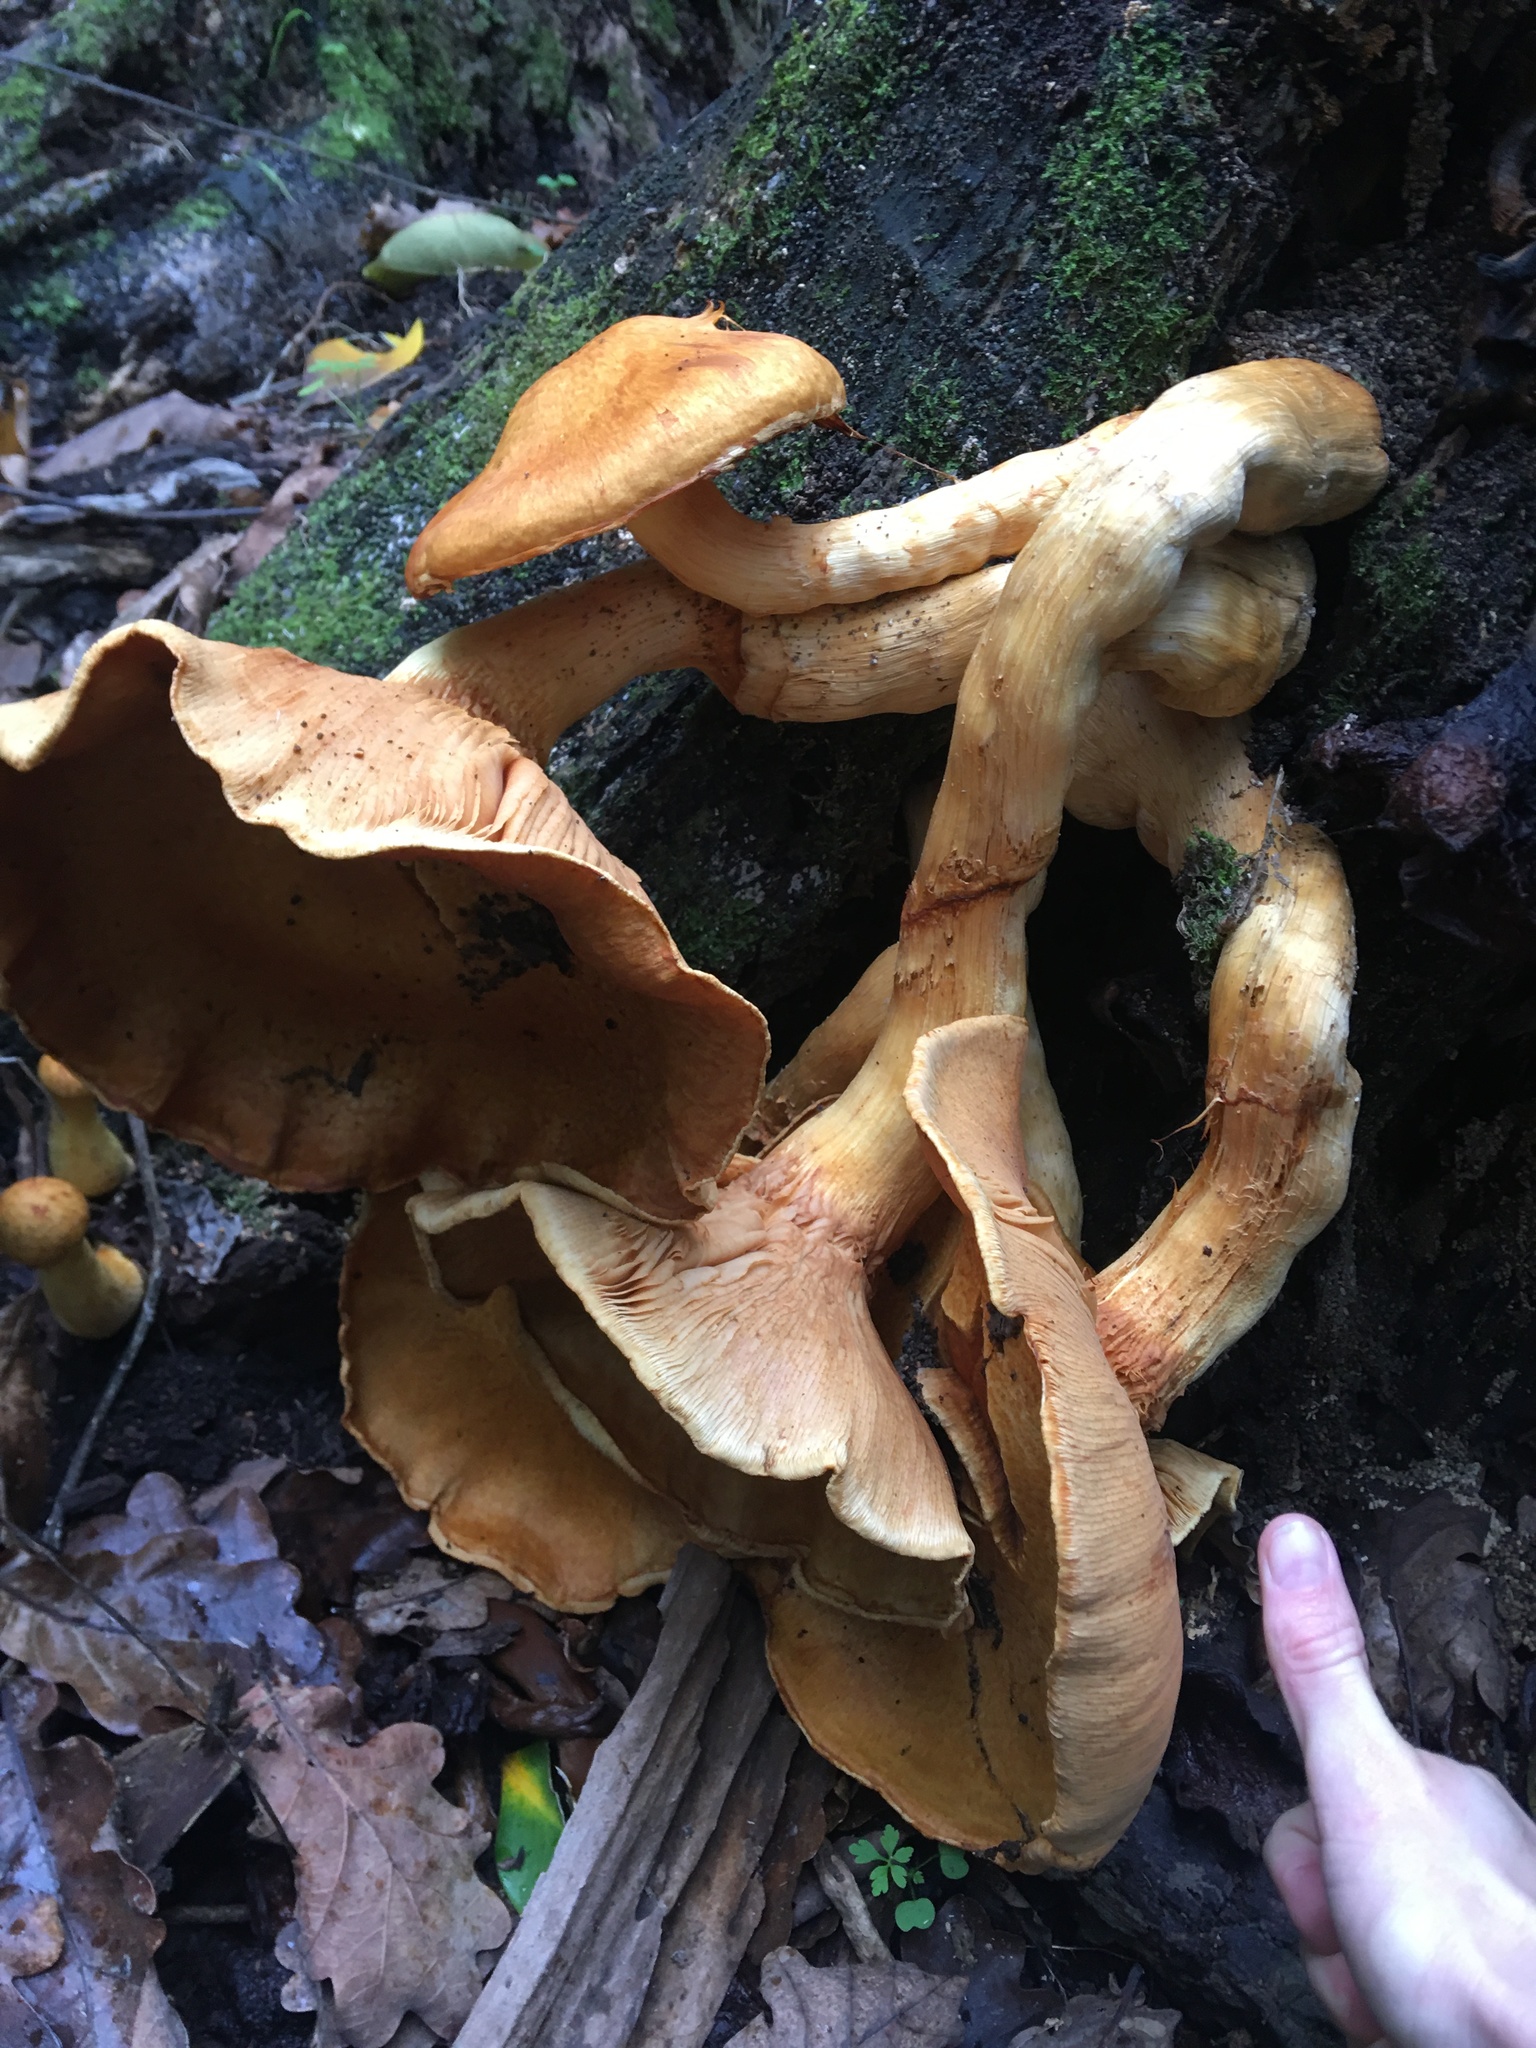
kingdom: Fungi
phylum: Basidiomycota
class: Agaricomycetes
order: Agaricales
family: Hymenogastraceae
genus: Gymnopilus
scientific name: Gymnopilus junonius
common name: Spectacular rustgill
